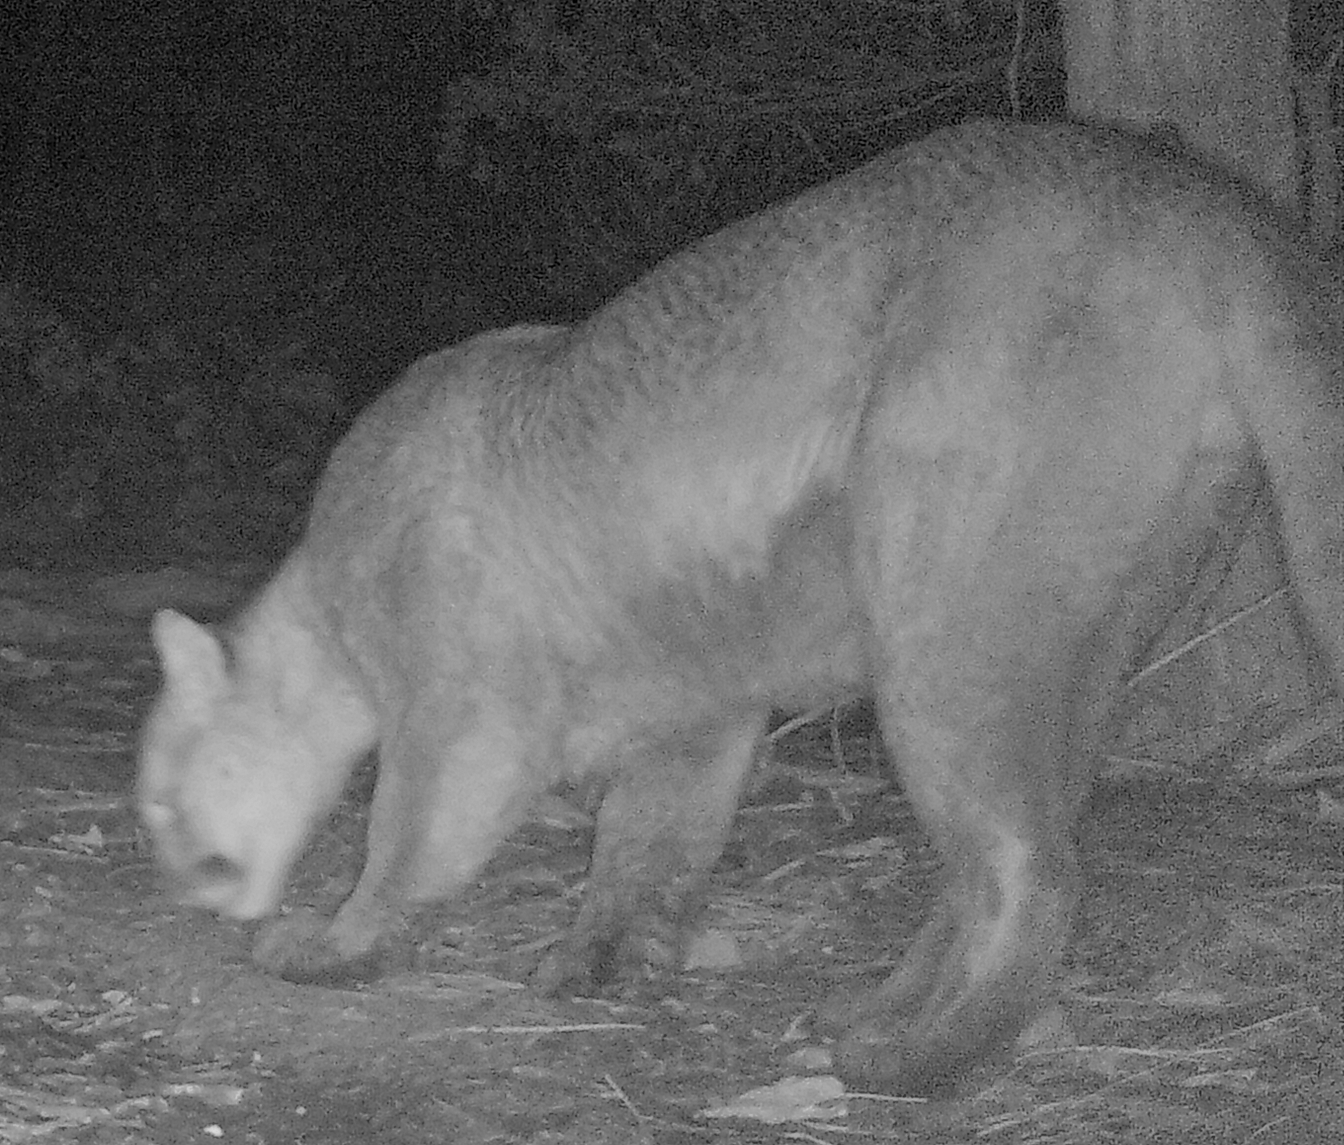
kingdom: Animalia
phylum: Chordata
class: Mammalia
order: Carnivora
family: Felidae
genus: Puma
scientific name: Puma concolor
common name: Puma
